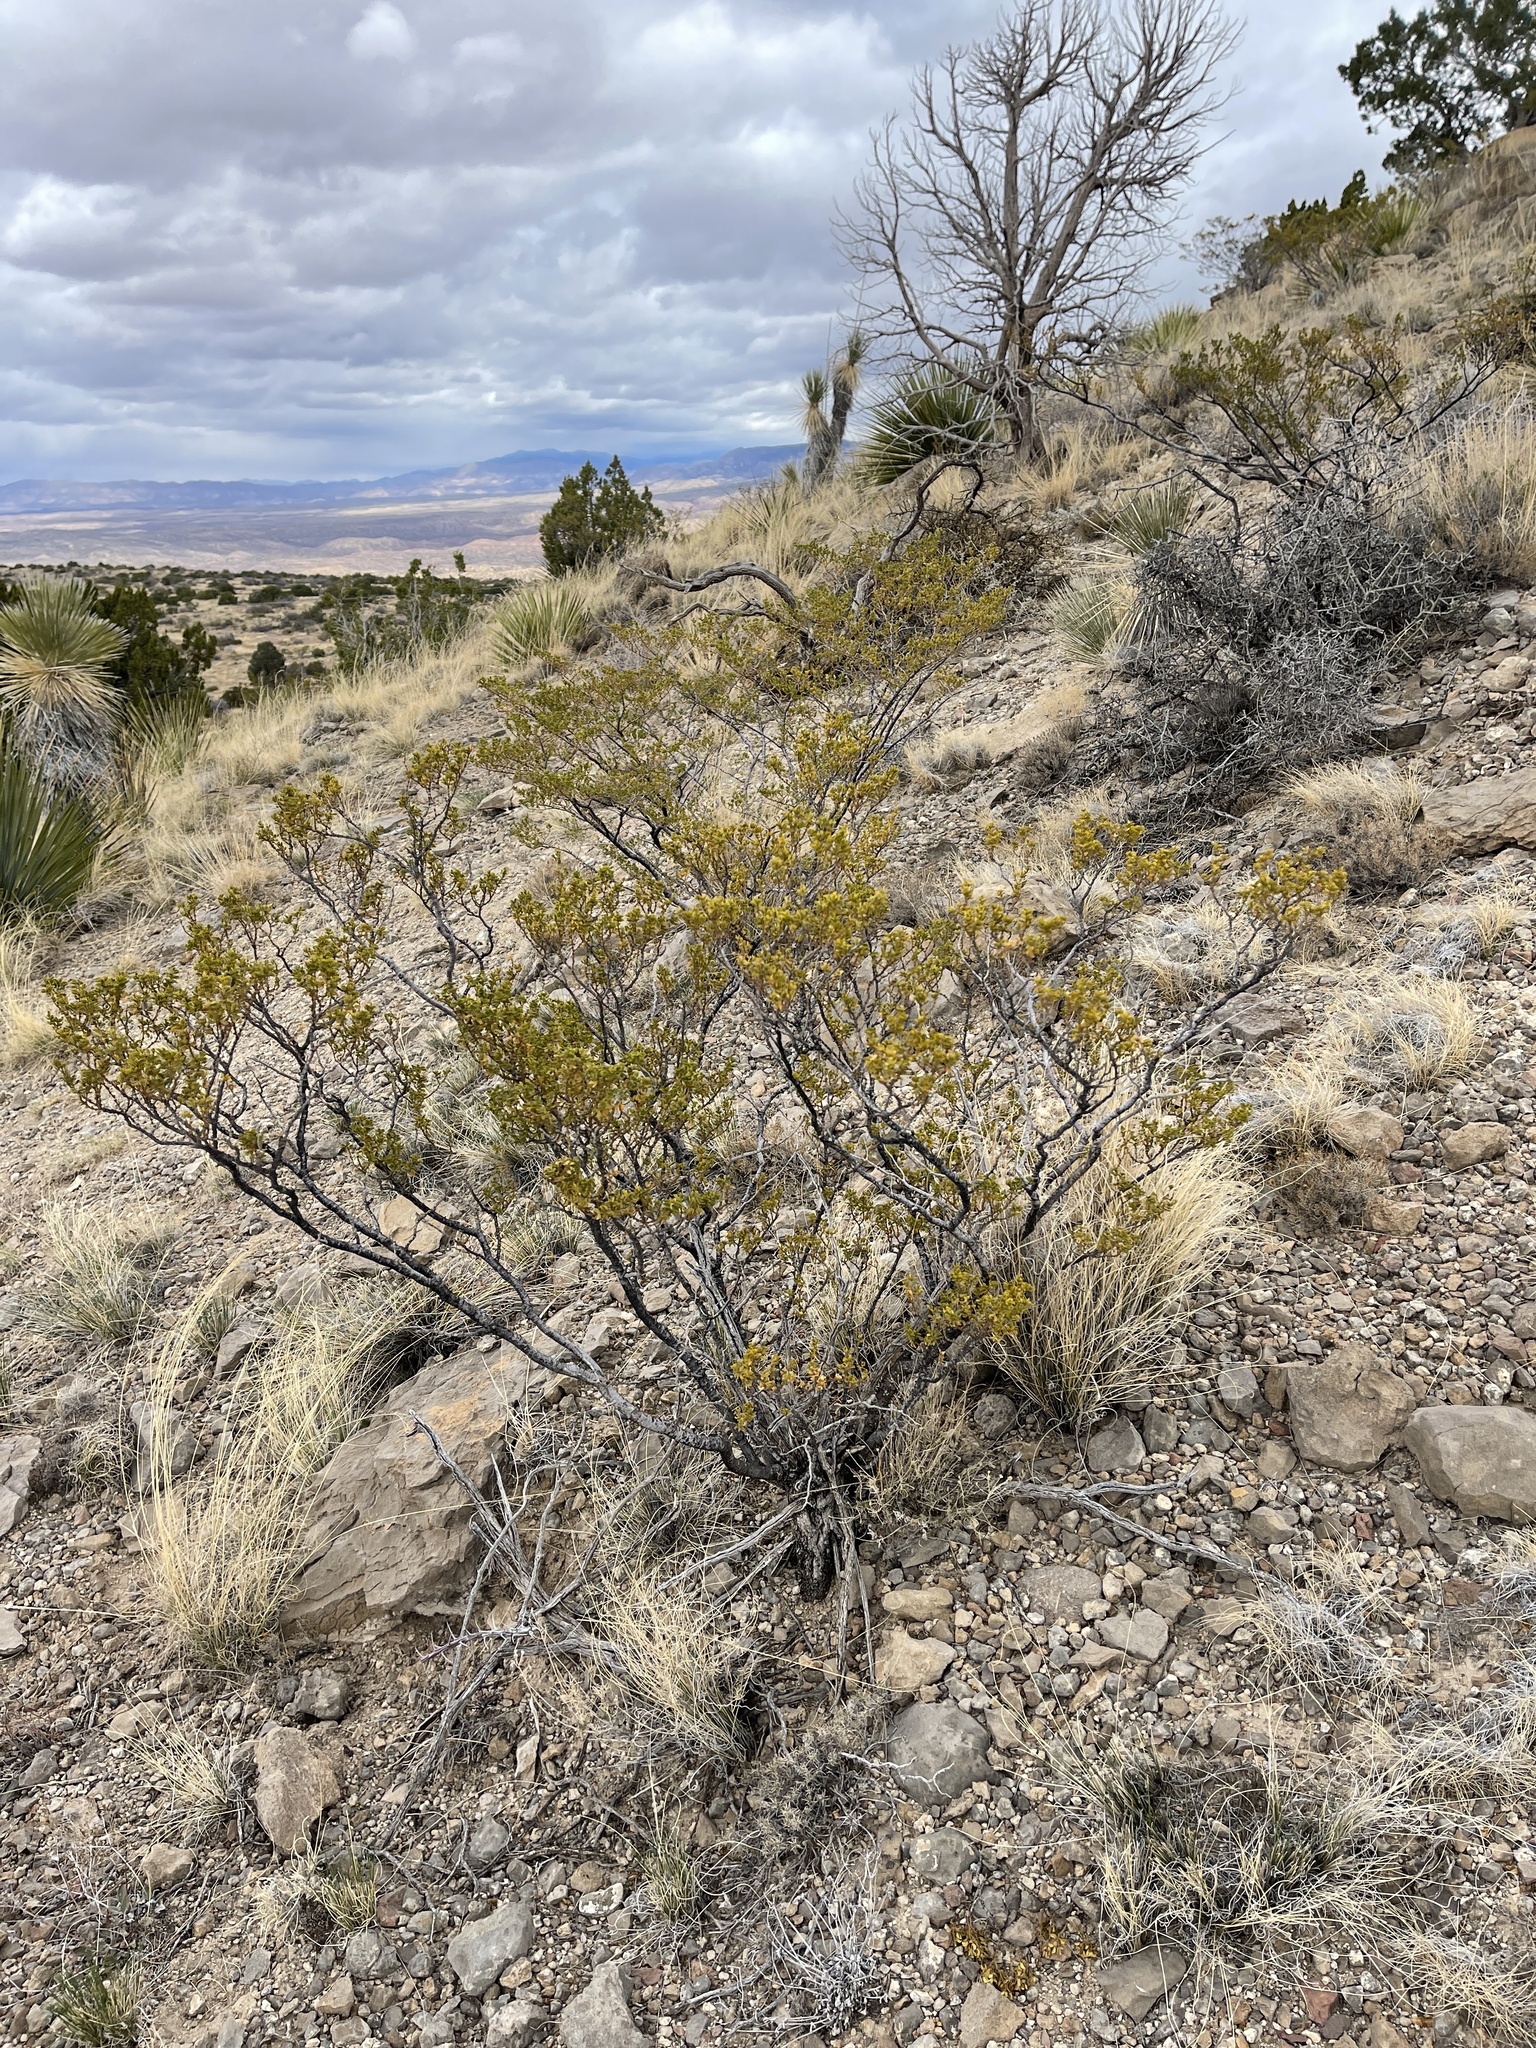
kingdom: Plantae
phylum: Tracheophyta
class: Magnoliopsida
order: Zygophyllales
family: Zygophyllaceae
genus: Larrea
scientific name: Larrea tridentata
